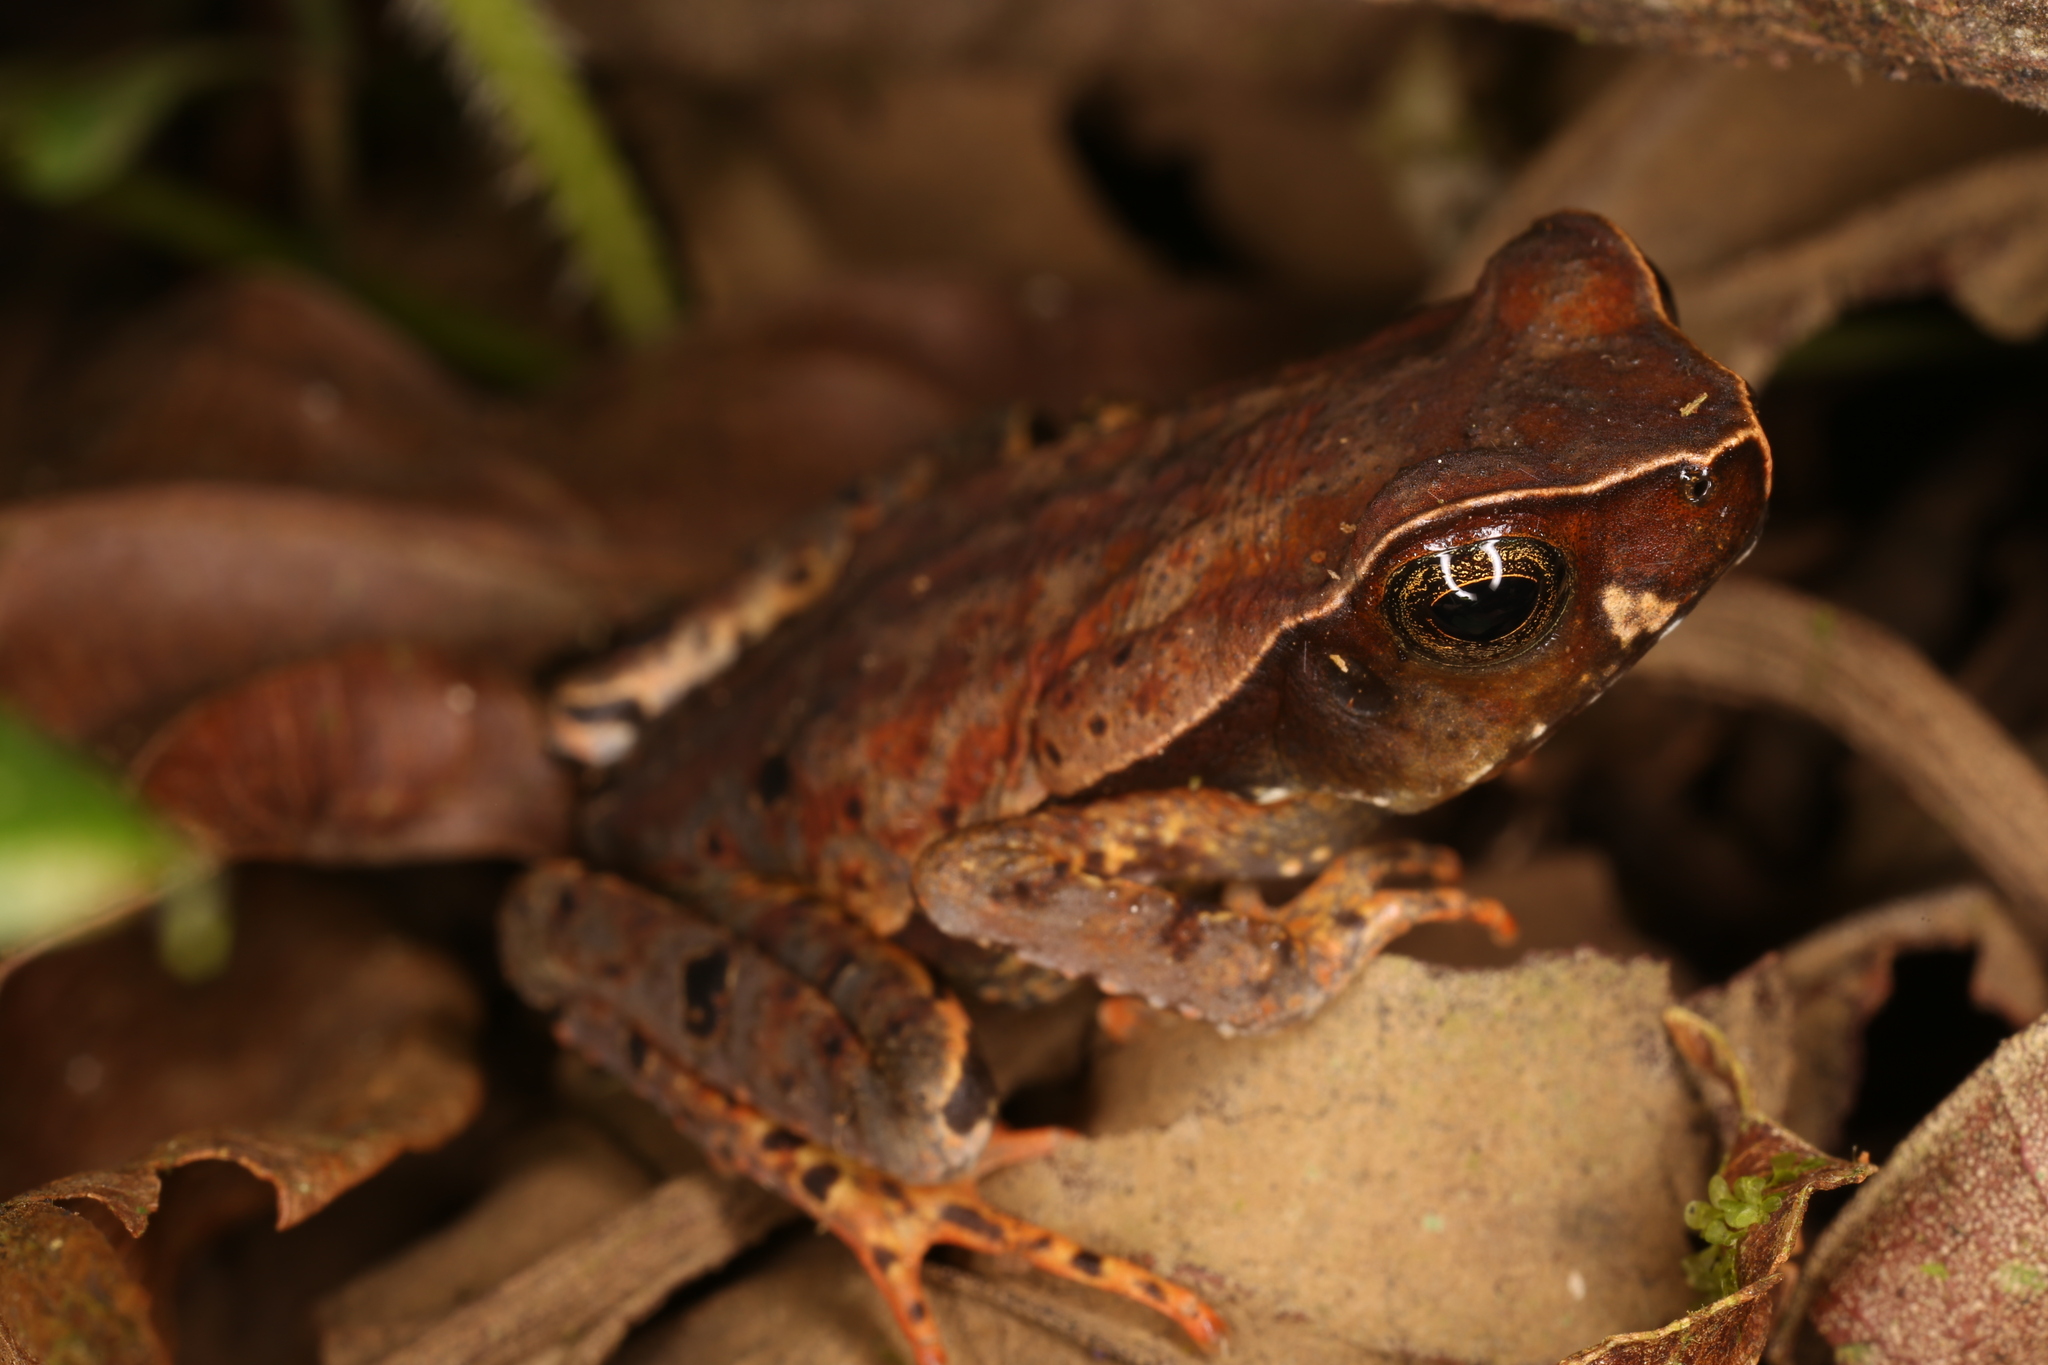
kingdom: Animalia
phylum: Chordata
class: Amphibia
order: Anura
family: Bufonidae
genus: Rhaebo
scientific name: Rhaebo haematiticus
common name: Truando toad
